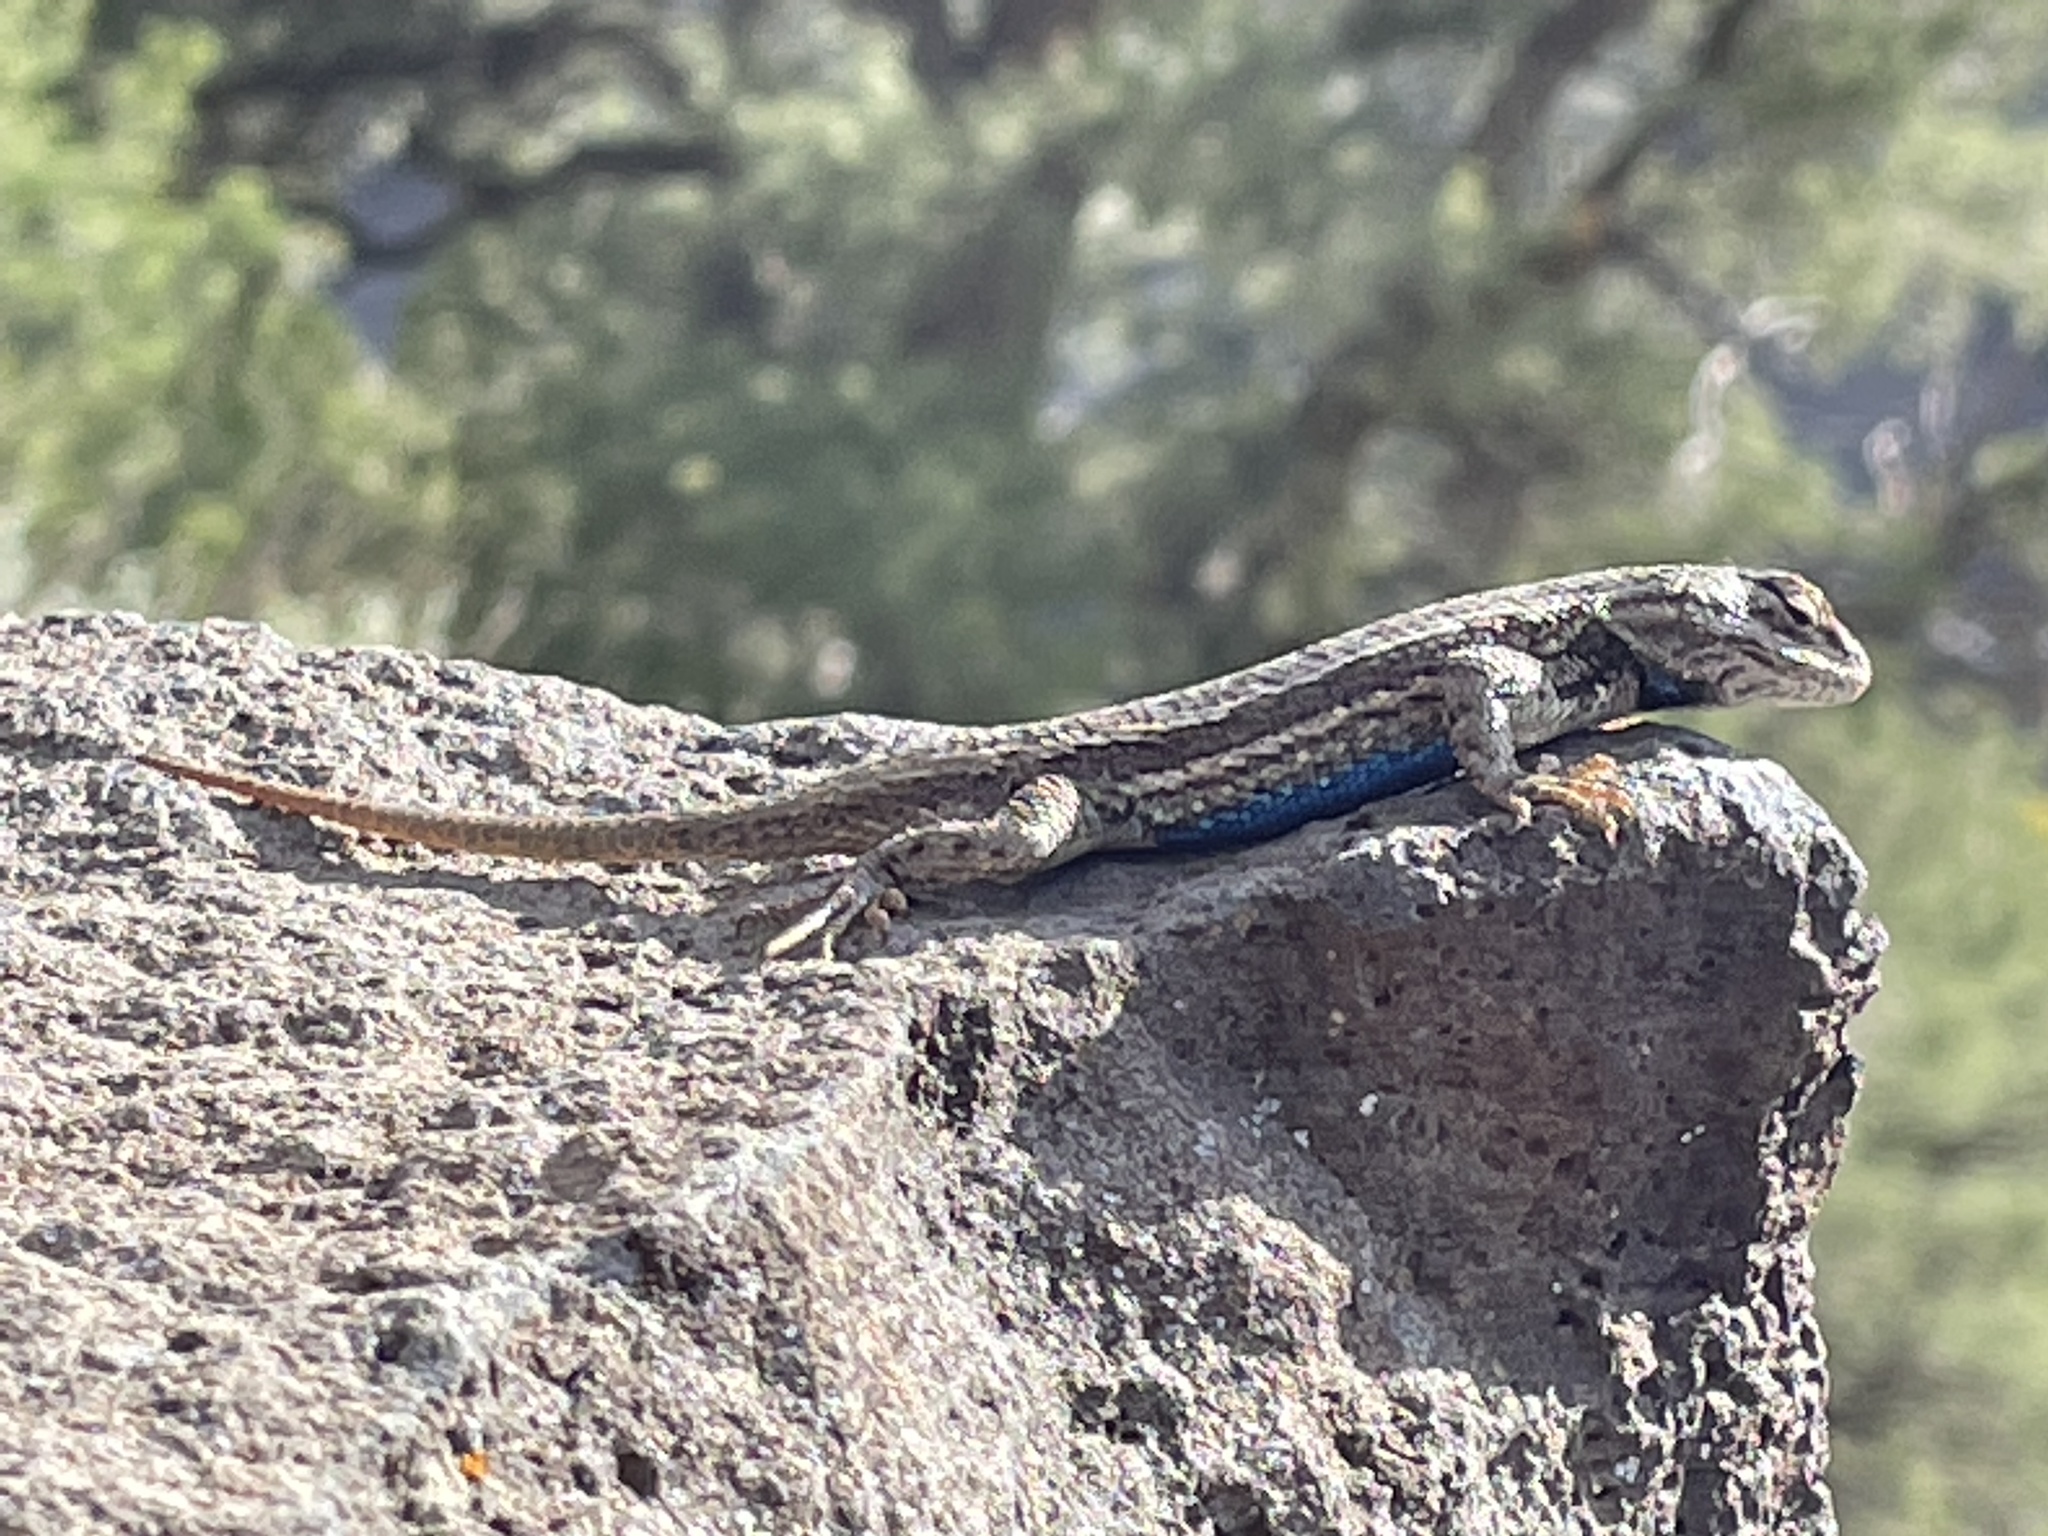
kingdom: Animalia
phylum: Chordata
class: Squamata
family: Phrynosomatidae
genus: Sceloporus
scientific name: Sceloporus
